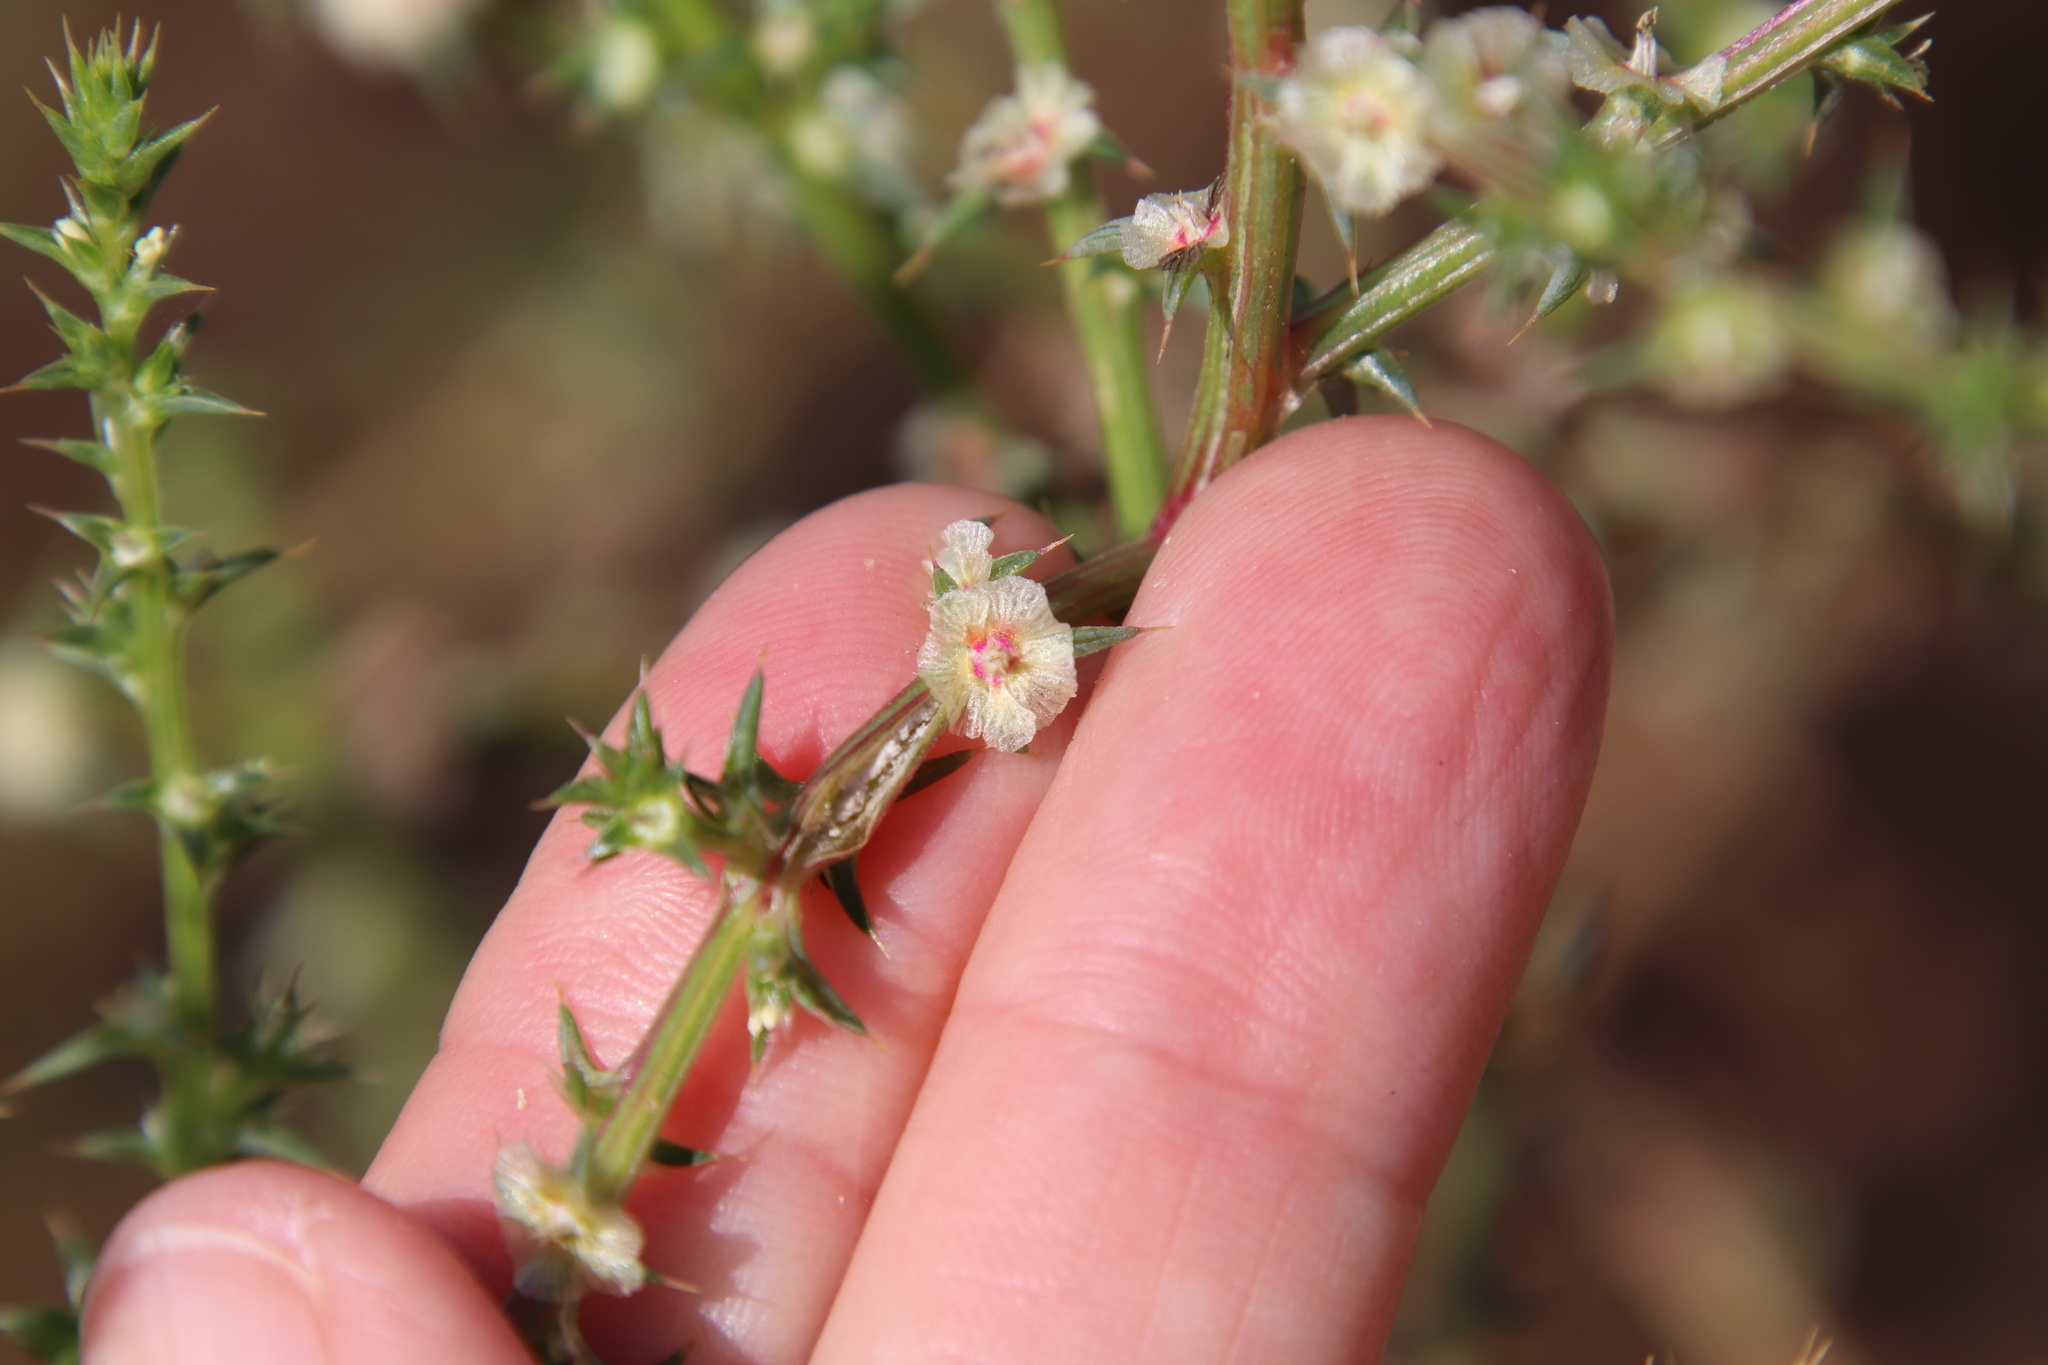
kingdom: Plantae
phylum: Tracheophyta
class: Magnoliopsida
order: Caryophyllales
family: Amaranthaceae
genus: Salsola
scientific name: Salsola australis
